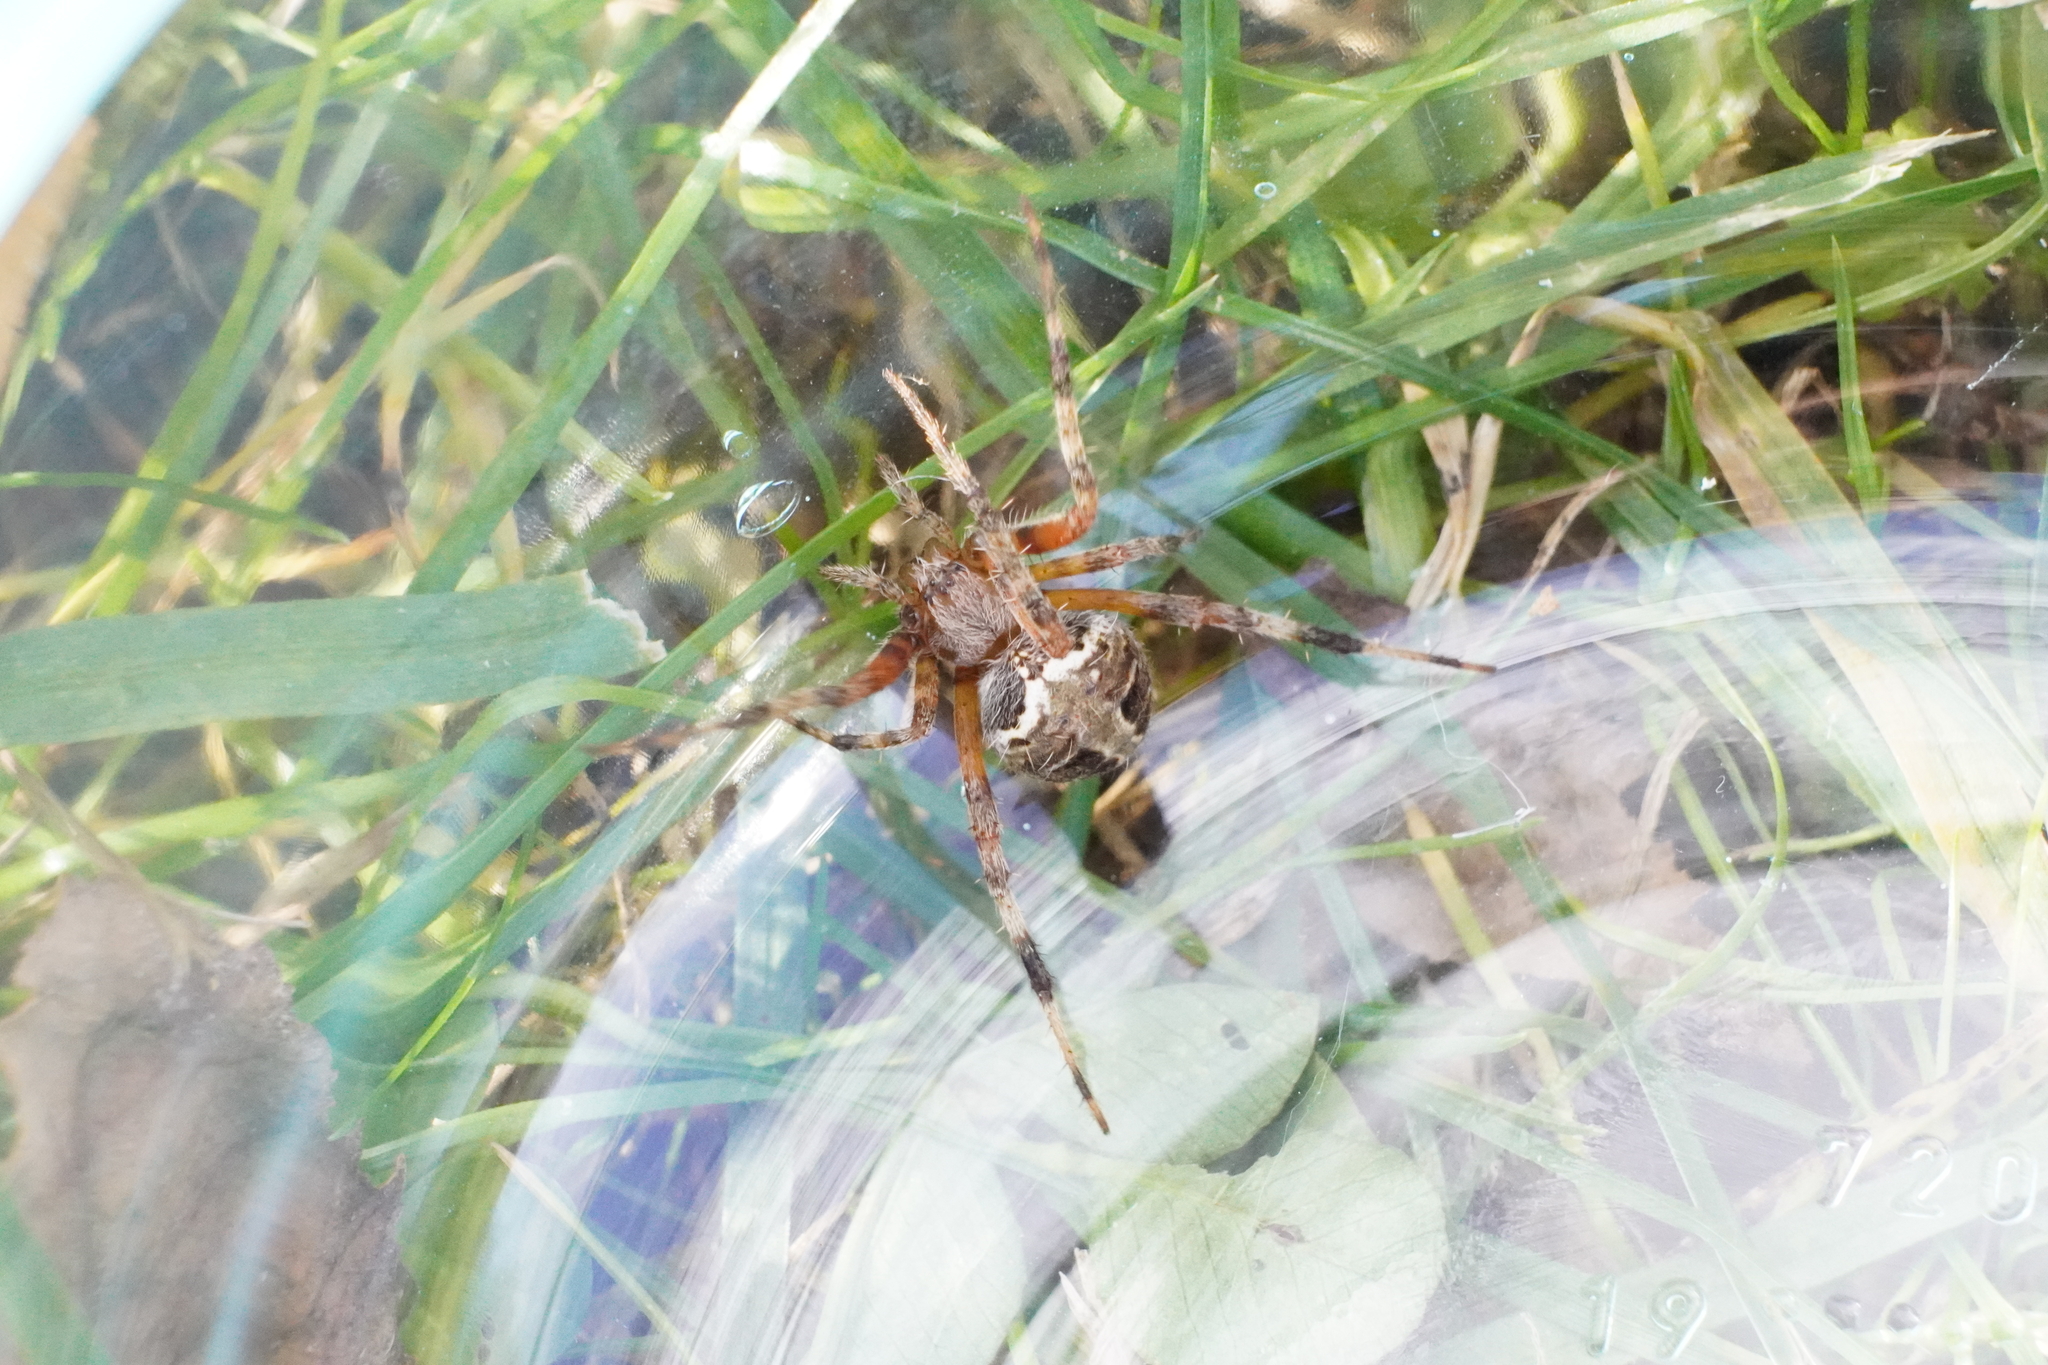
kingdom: Animalia
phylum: Arthropoda
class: Arachnida
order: Araneae
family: Araneidae
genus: Neoscona
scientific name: Neoscona domiciliorum
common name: Red-femured spotted orbweaver
